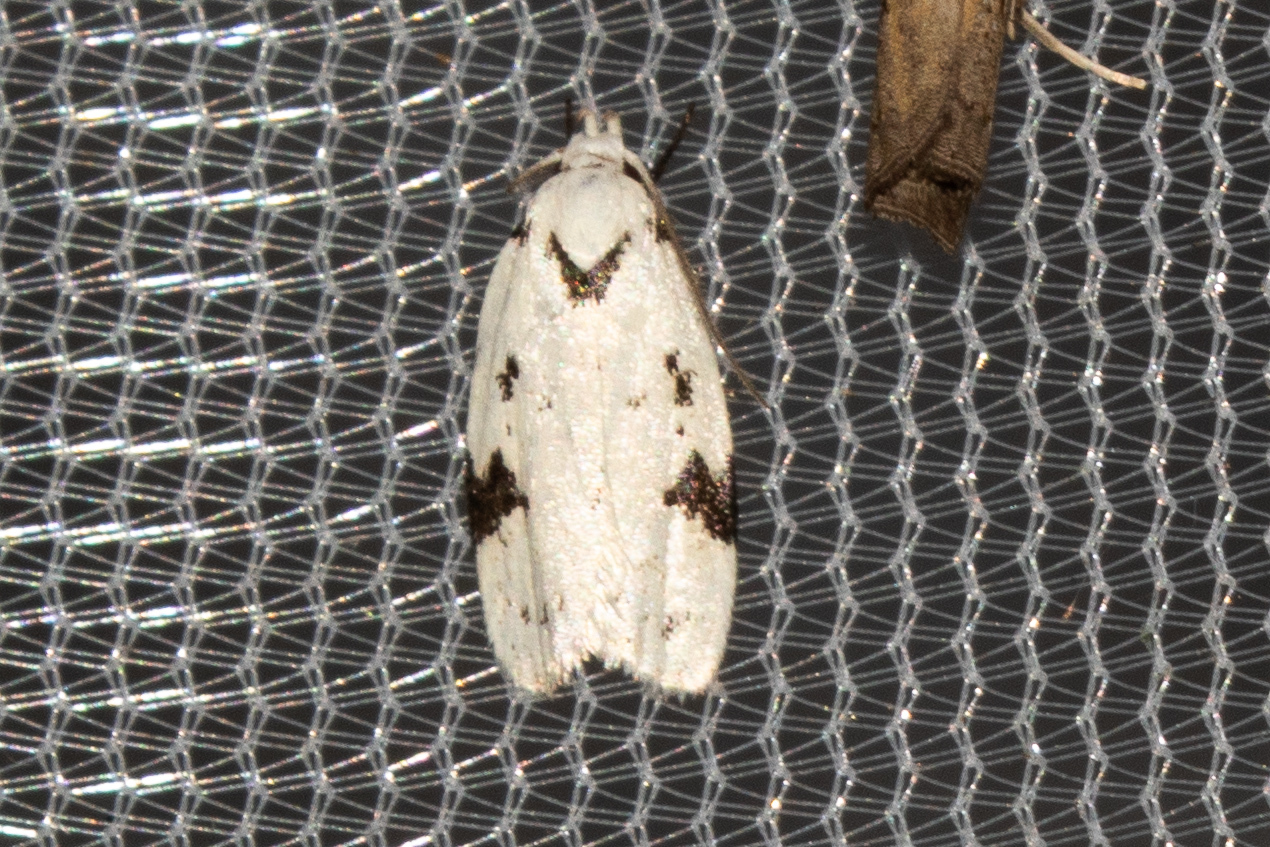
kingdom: Animalia
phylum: Arthropoda
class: Insecta
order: Lepidoptera
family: Oecophoridae
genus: Inga
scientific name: Inga sparsiciliella
